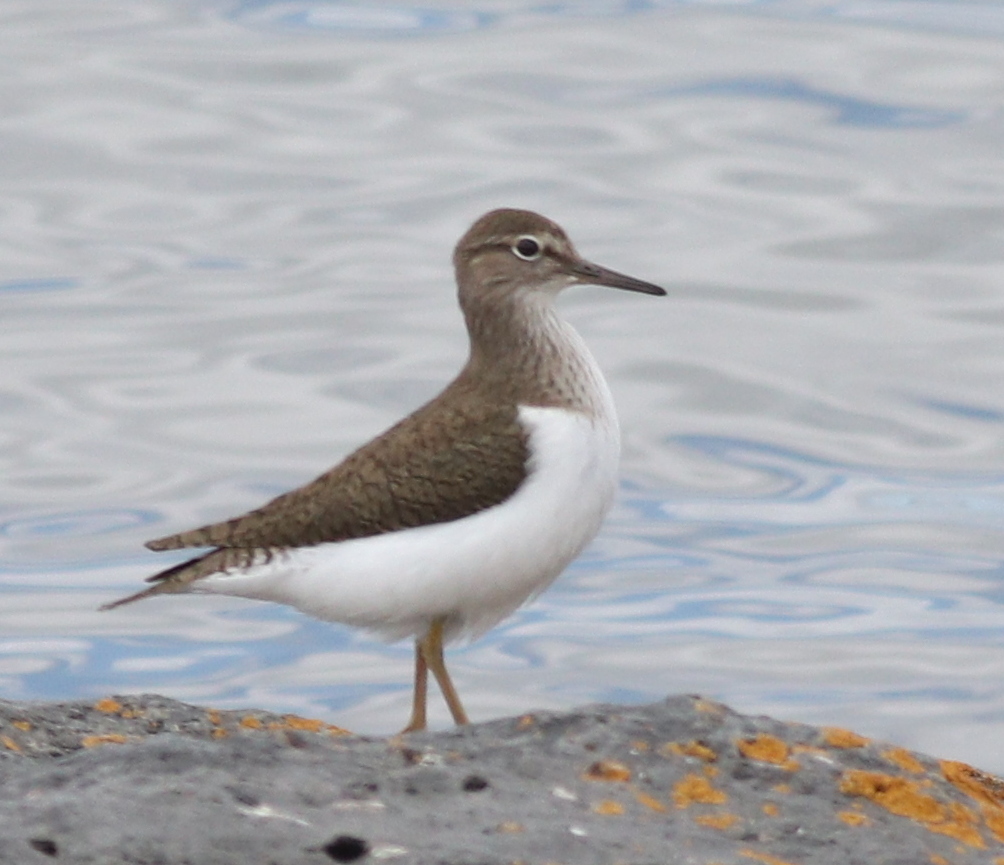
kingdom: Animalia
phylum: Chordata
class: Aves
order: Charadriiformes
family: Scolopacidae
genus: Actitis
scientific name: Actitis hypoleucos
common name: Common sandpiper
